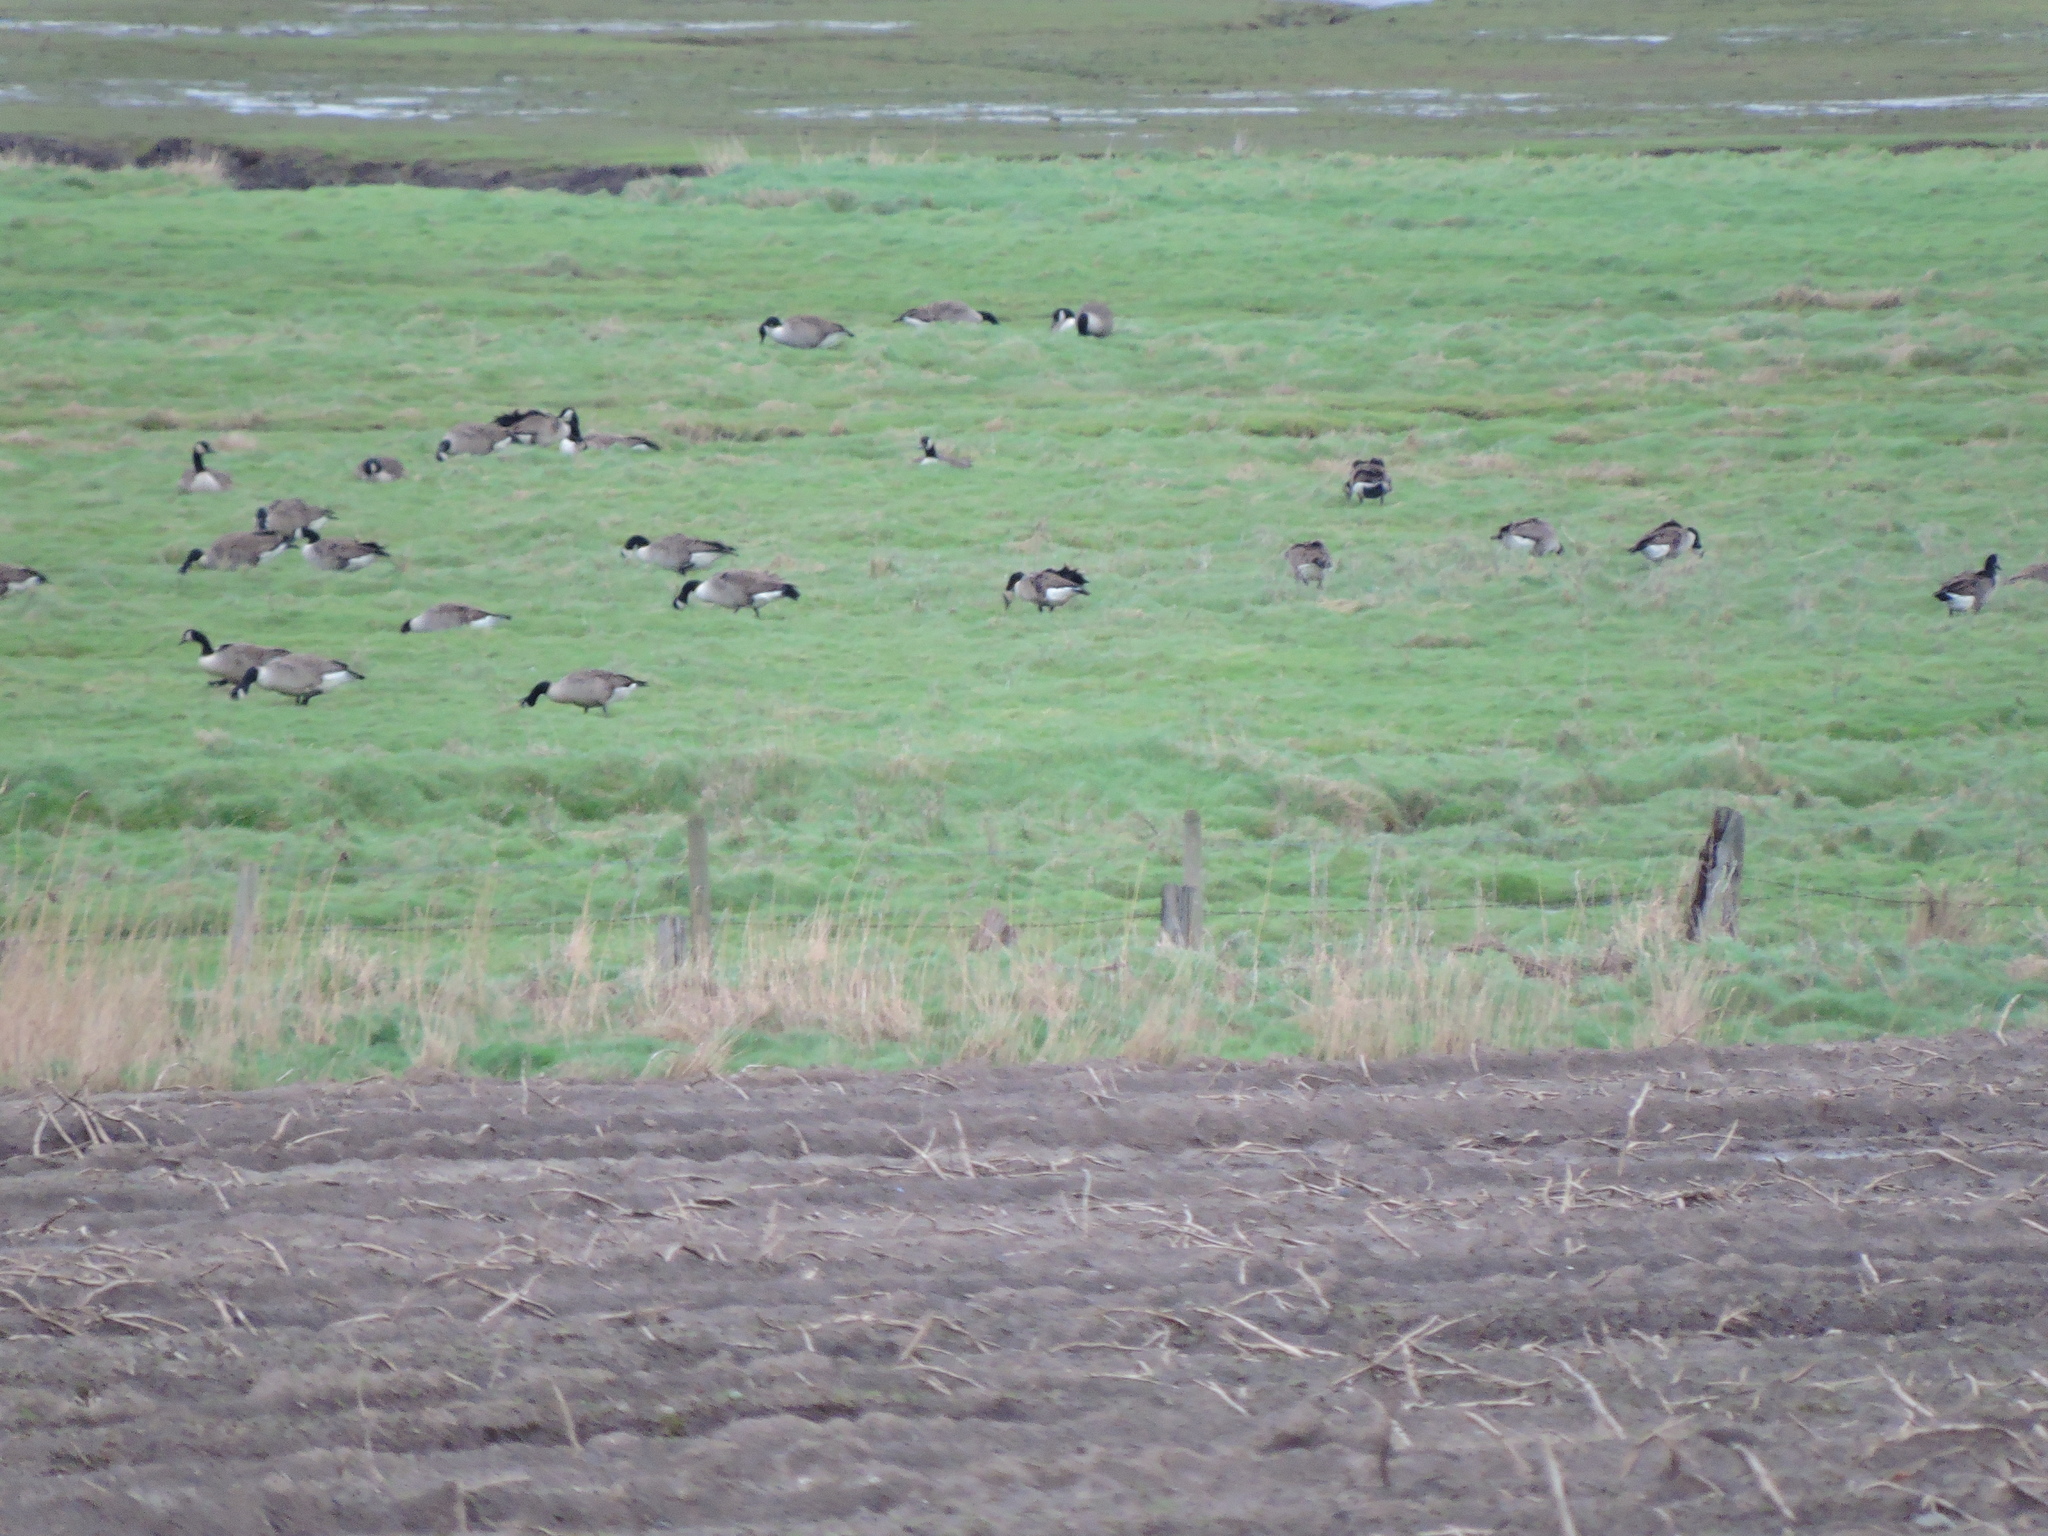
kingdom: Animalia
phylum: Chordata
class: Aves
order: Anseriformes
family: Anatidae
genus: Branta
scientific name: Branta canadensis
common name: Canada goose
